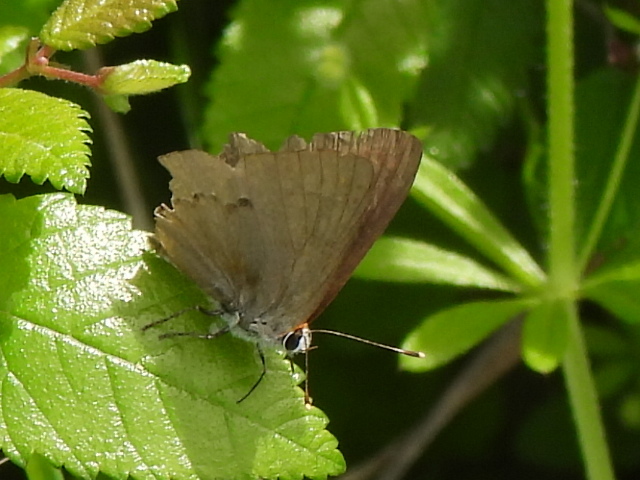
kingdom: Animalia
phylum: Arthropoda
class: Insecta
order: Lepidoptera
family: Lycaenidae
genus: Strymon
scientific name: Strymon melinus
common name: Gray hairstreak
